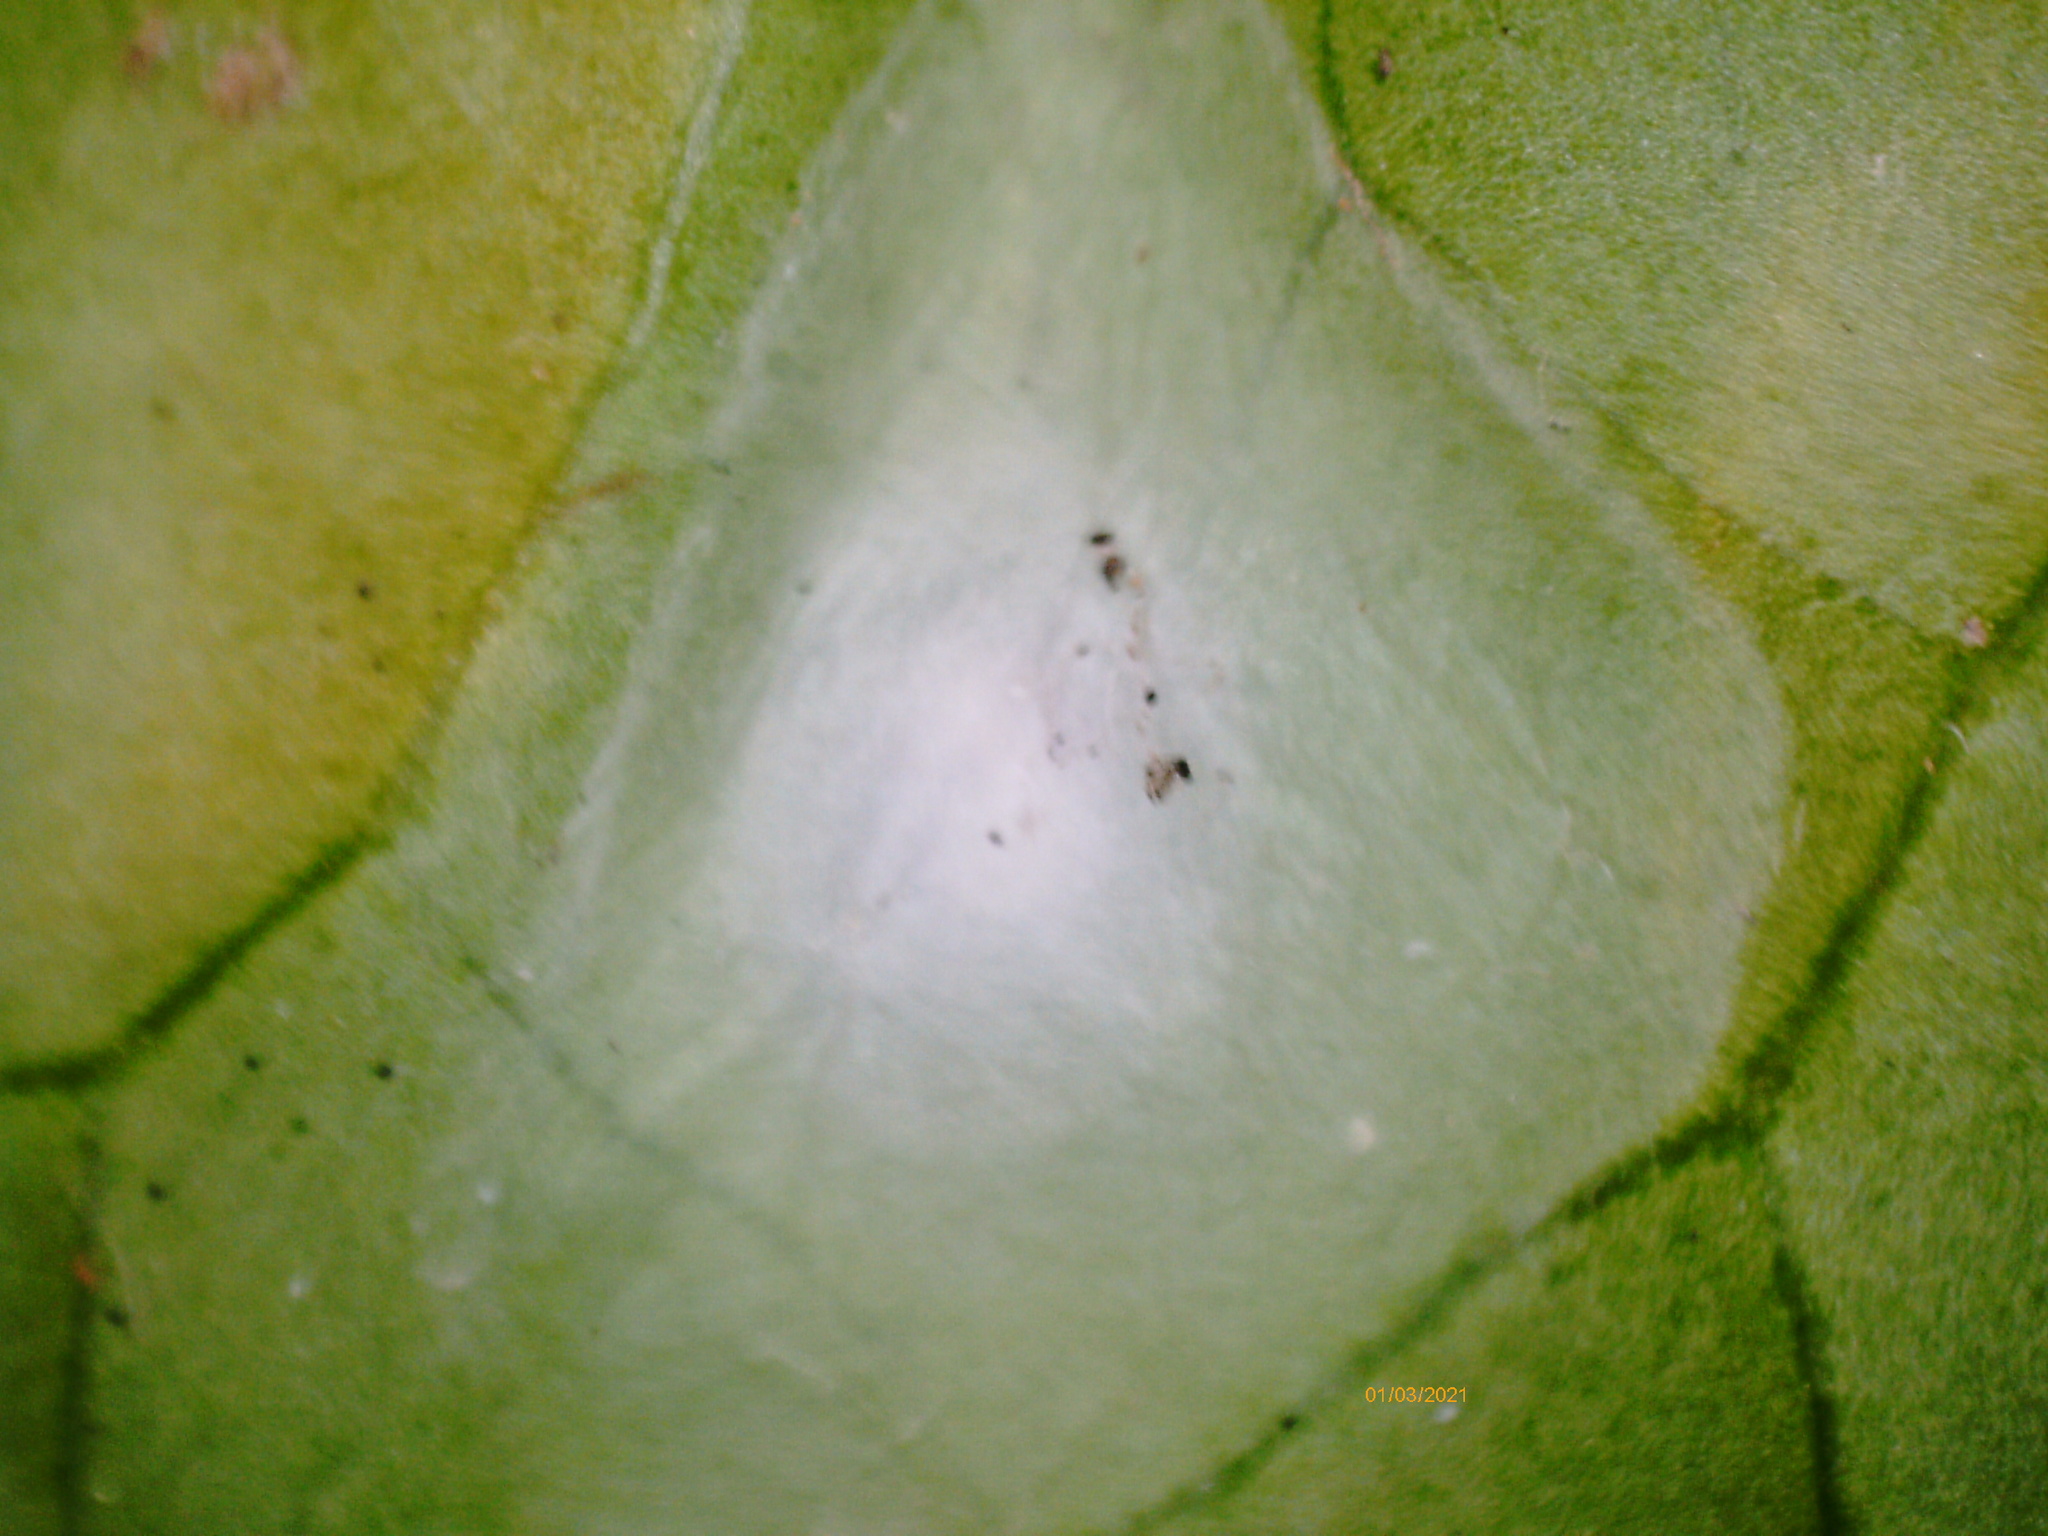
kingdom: Animalia
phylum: Arthropoda
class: Insecta
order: Neuroptera
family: Coniopterygidae
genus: Conwentzia
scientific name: Conwentzia psociformis
